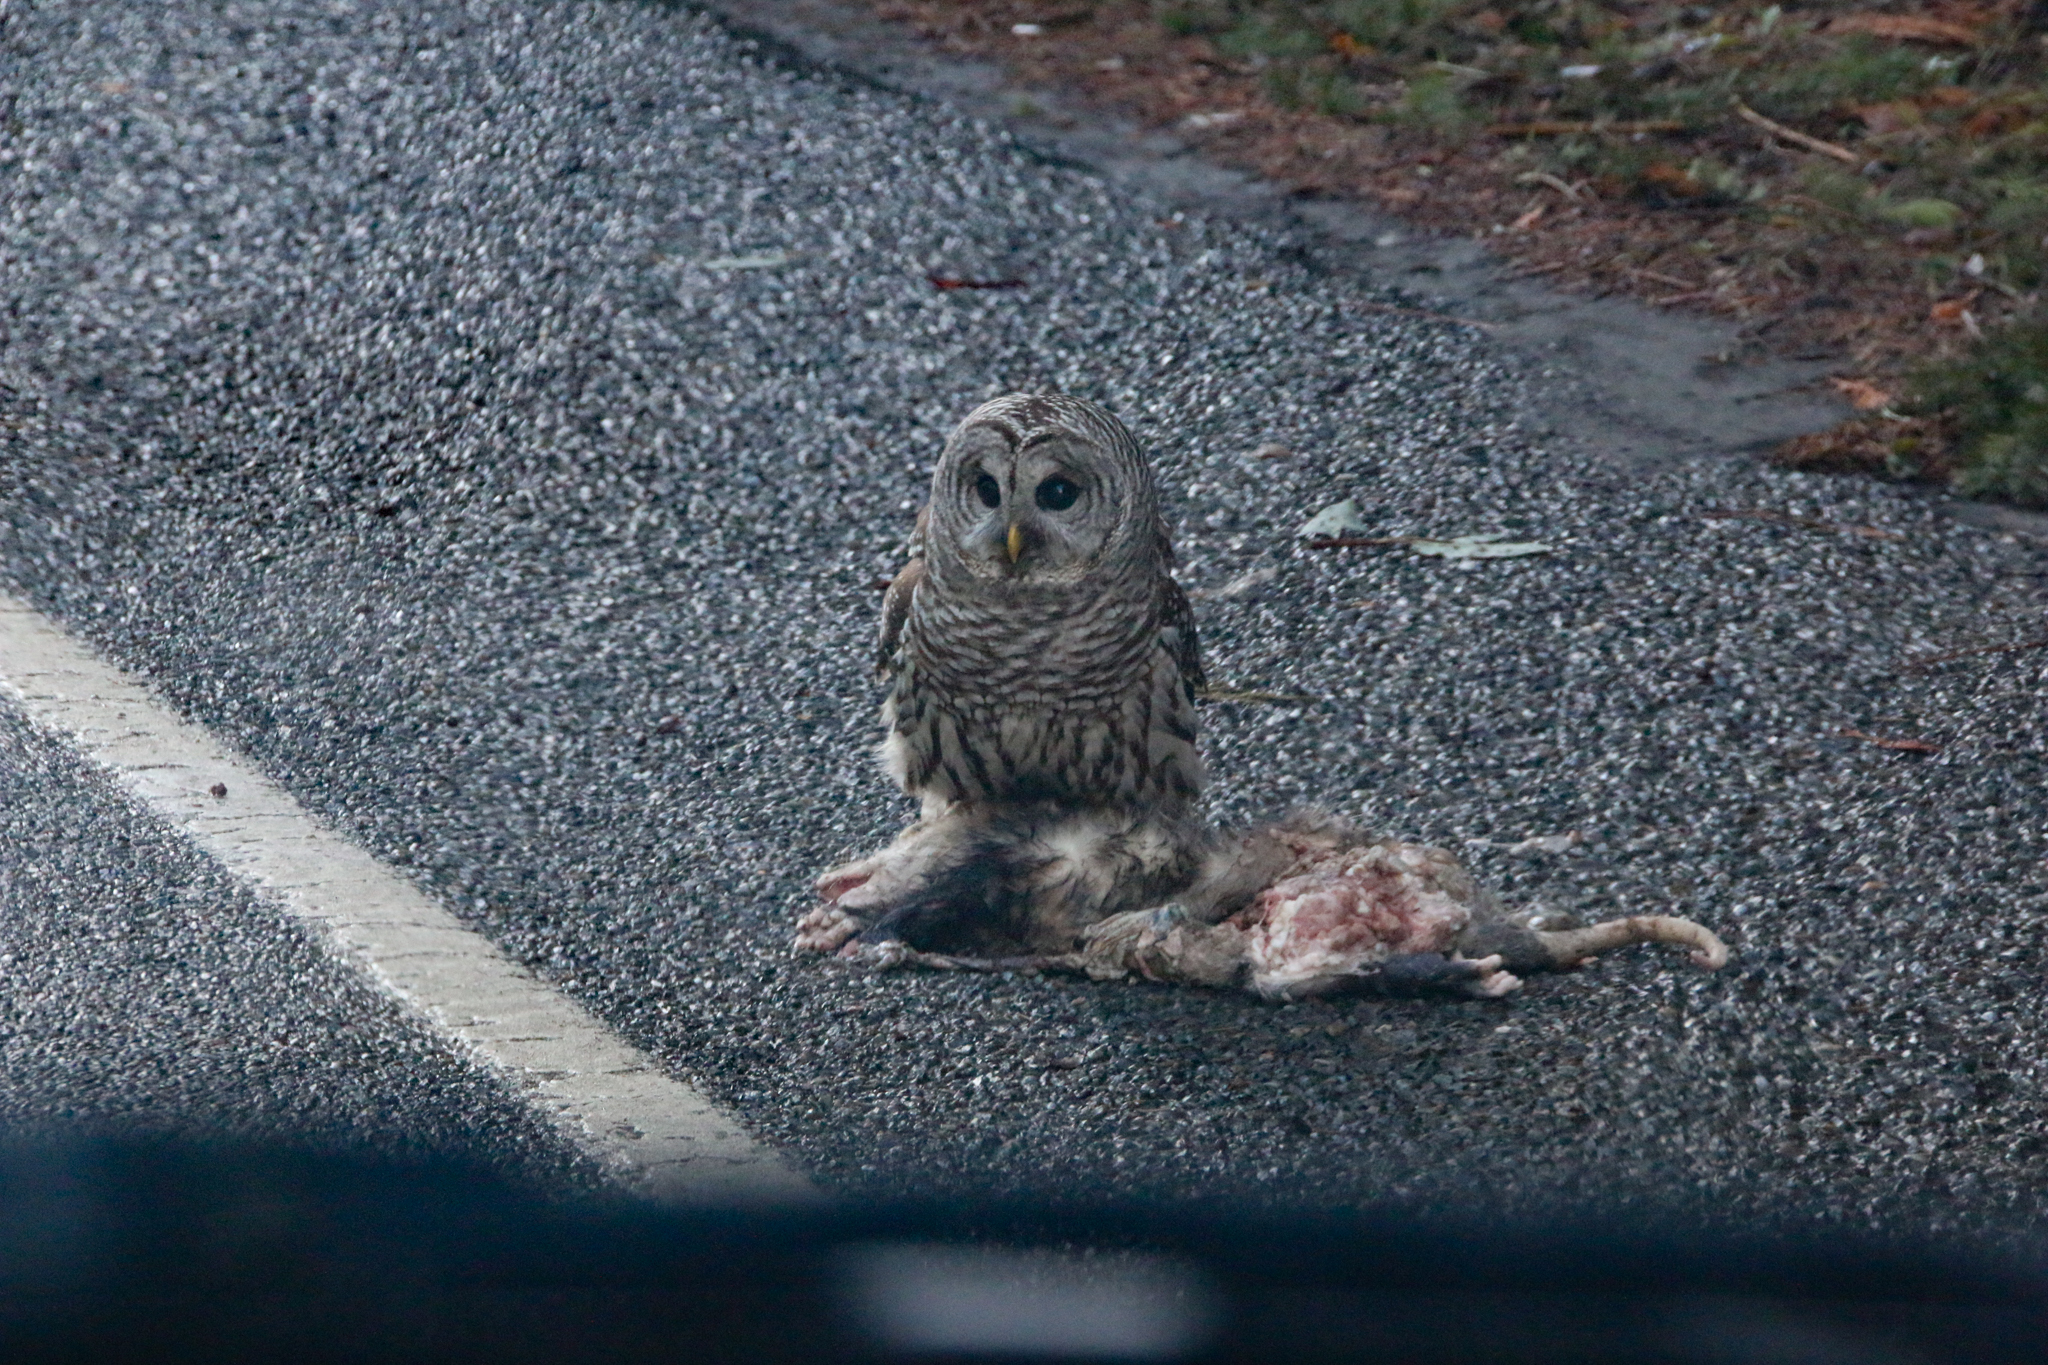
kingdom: Animalia
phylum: Chordata
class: Mammalia
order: Didelphimorphia
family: Didelphidae
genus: Didelphis
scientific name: Didelphis virginiana
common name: Virginia opossum
